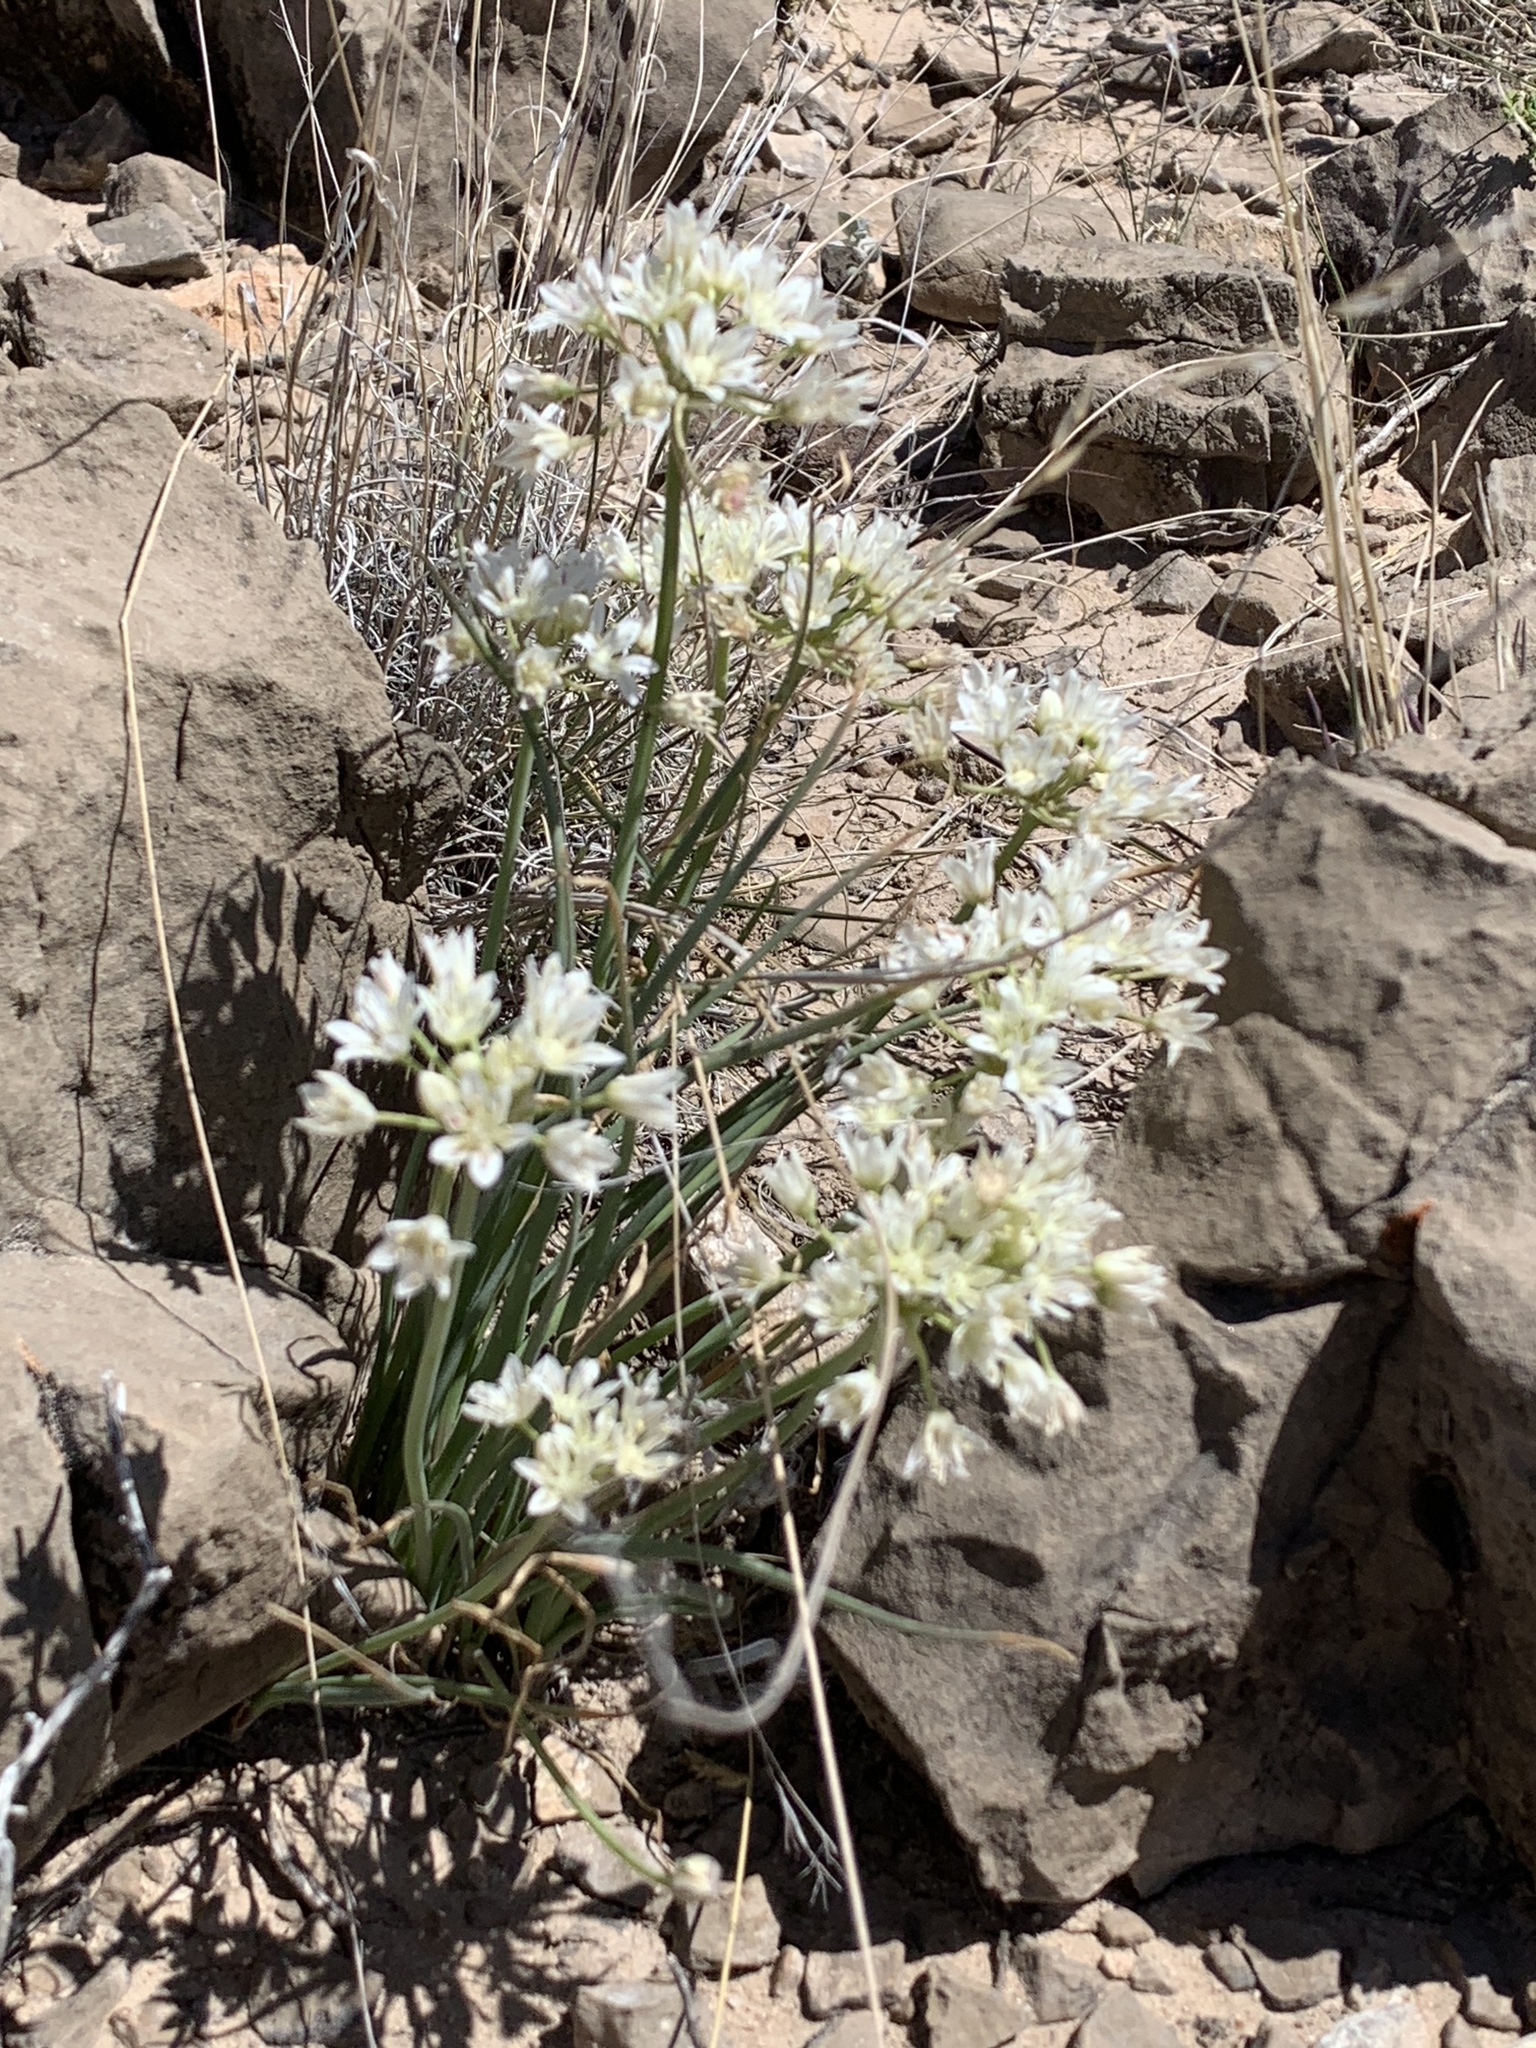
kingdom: Plantae
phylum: Tracheophyta
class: Liliopsida
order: Asparagales
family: Amaryllidaceae
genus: Allium
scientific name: Allium drummondii
